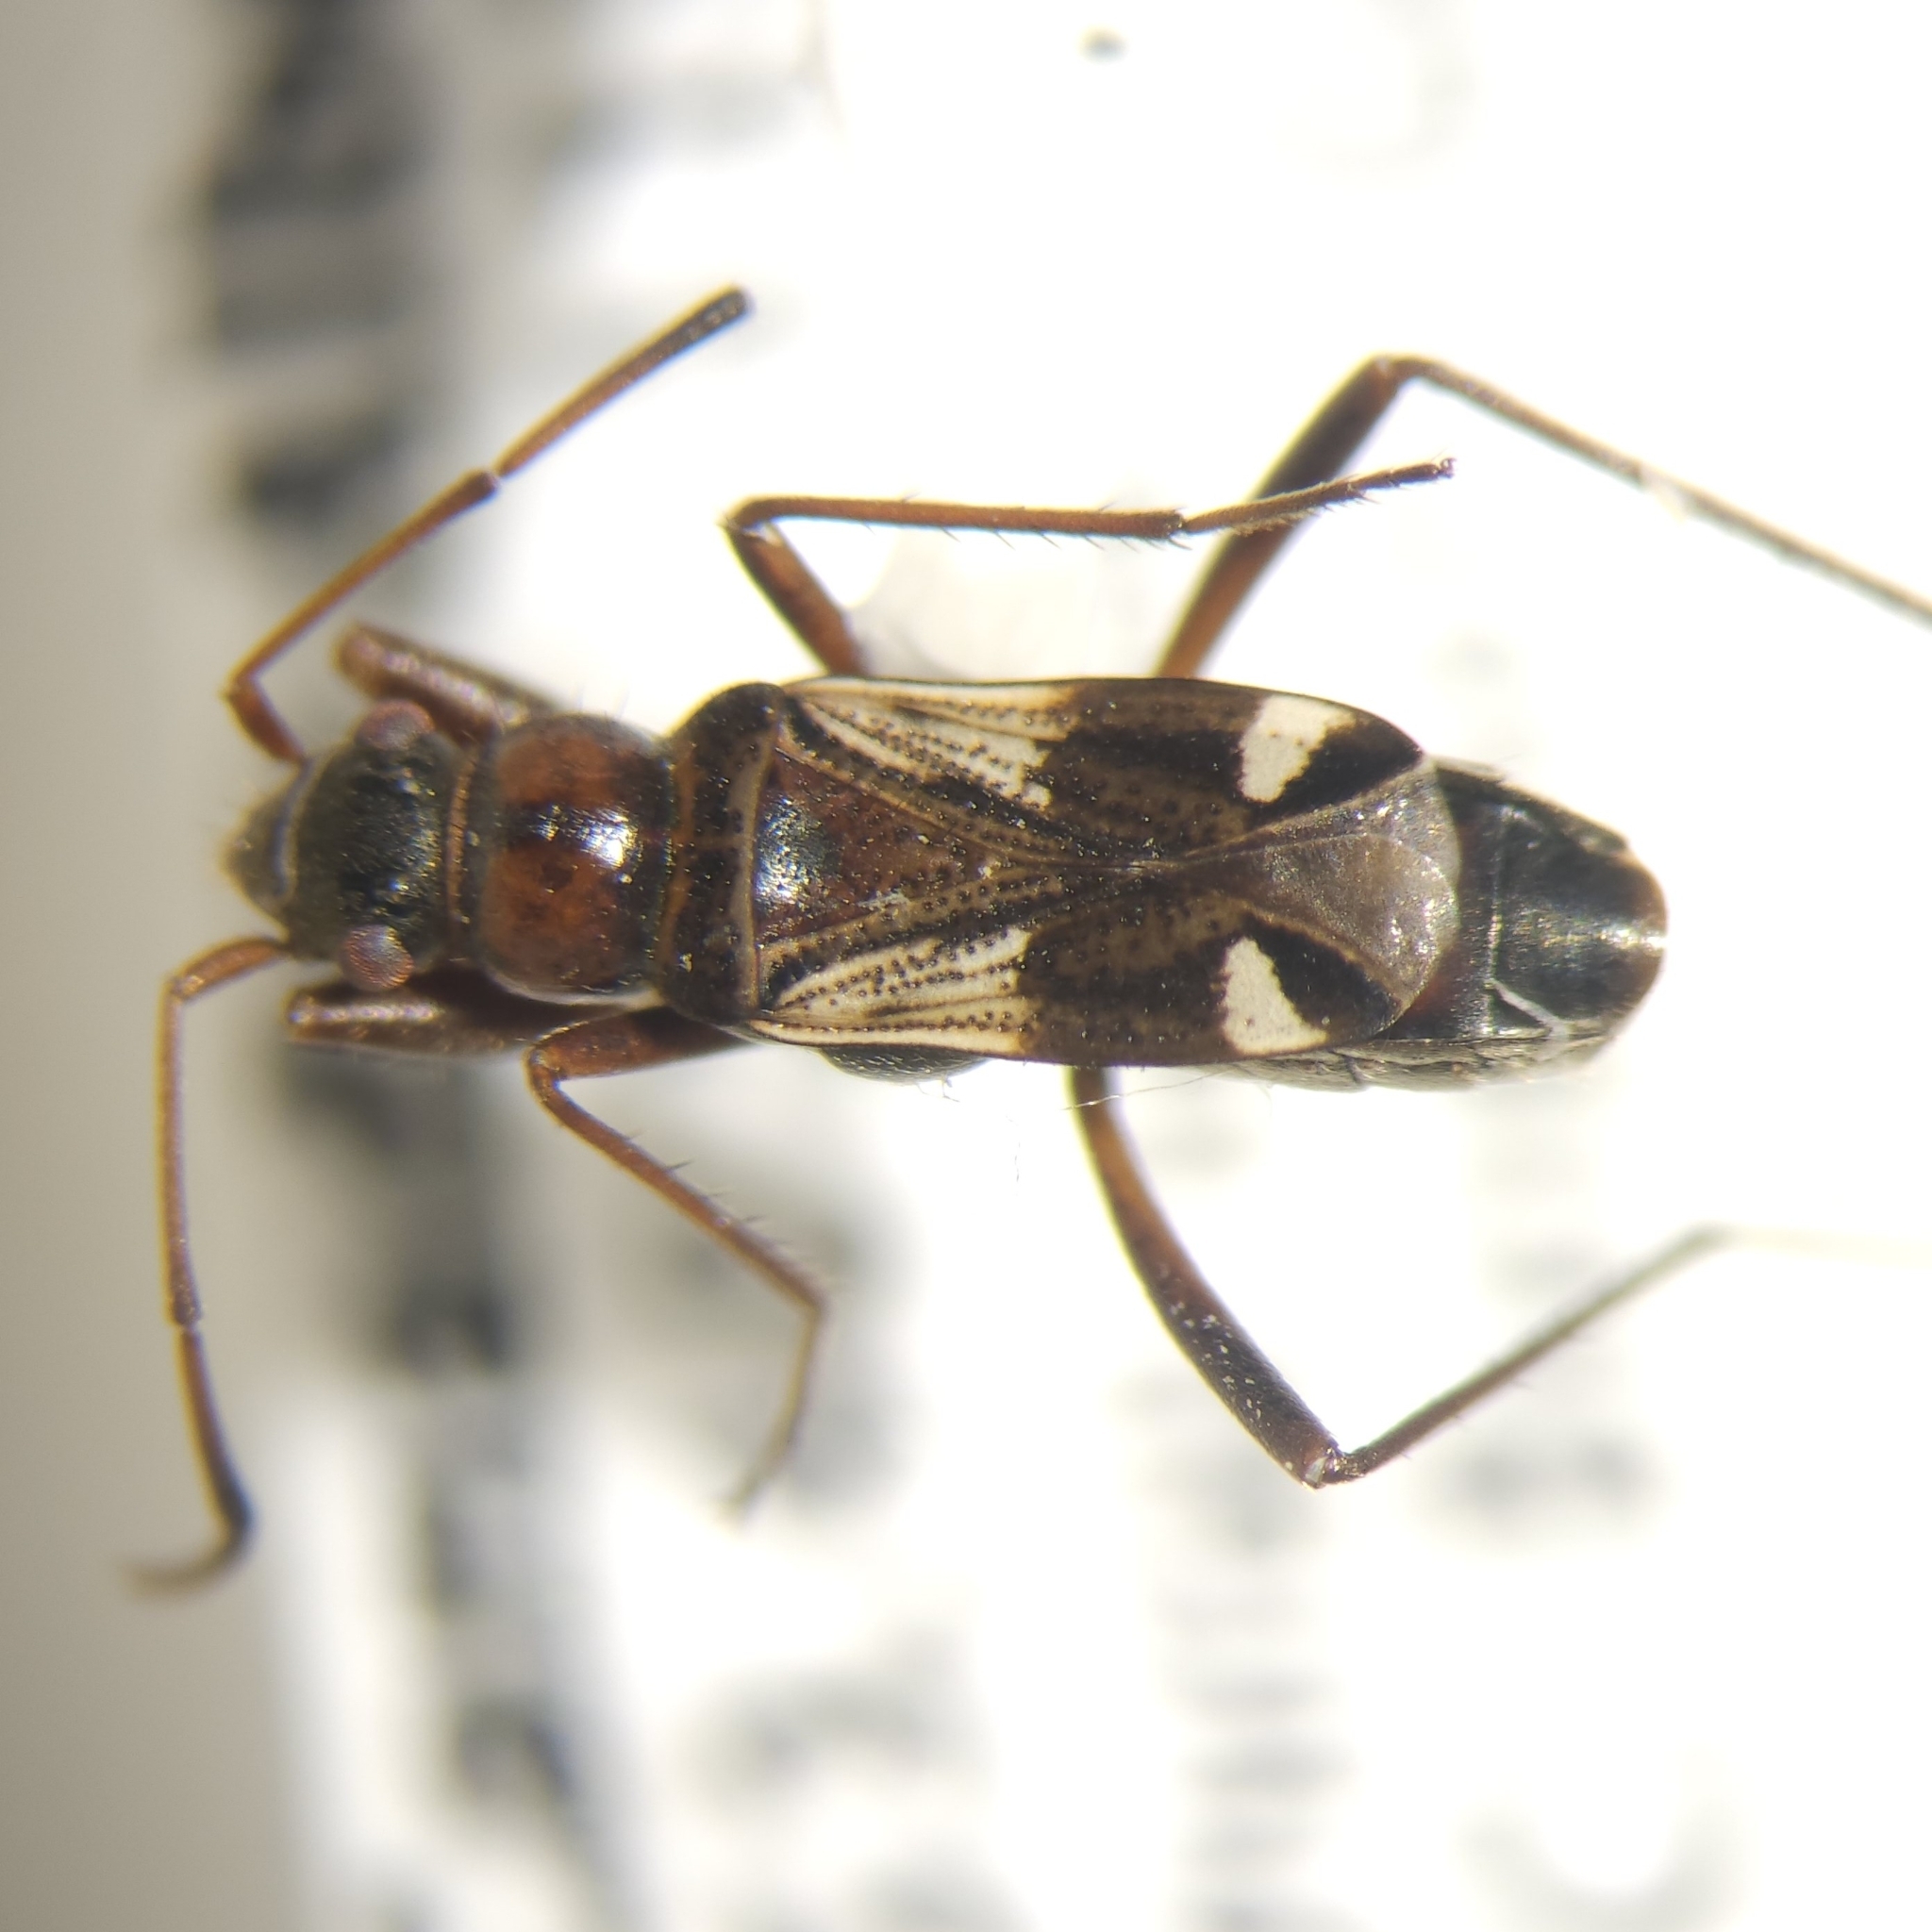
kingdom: Animalia
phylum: Arthropoda
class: Insecta
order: Hemiptera
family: Rhyparochromidae
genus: Slaterobius
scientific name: Slaterobius insignis
